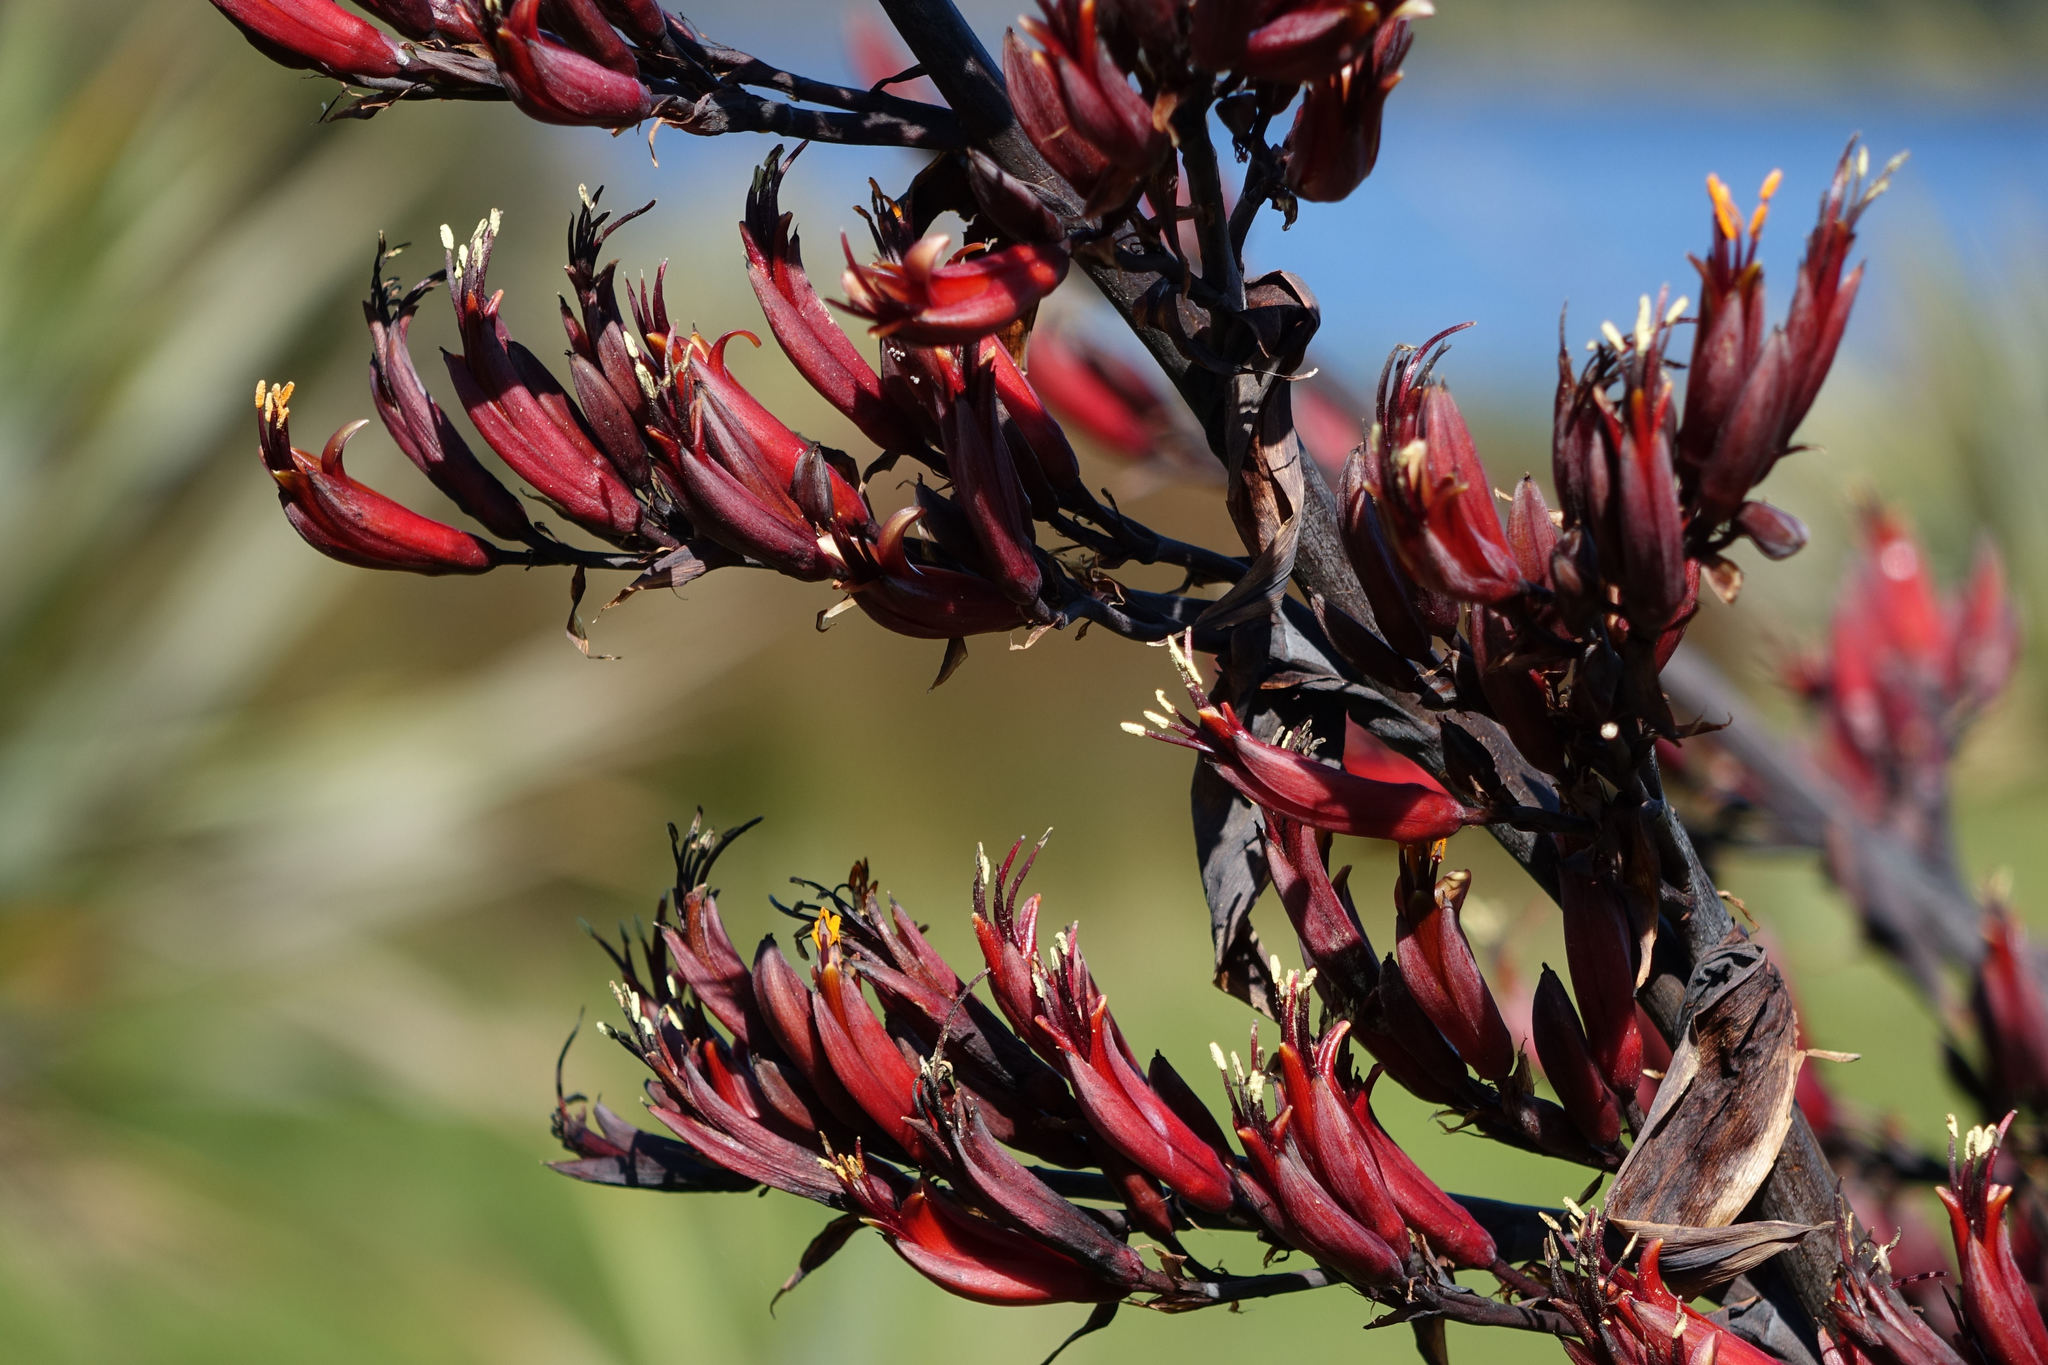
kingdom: Plantae
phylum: Tracheophyta
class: Liliopsida
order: Asparagales
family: Asphodelaceae
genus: Phormium
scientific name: Phormium tenax
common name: New zealand flax
